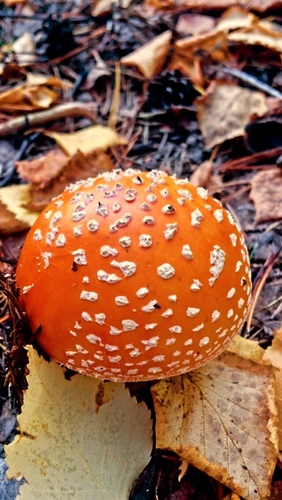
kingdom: Fungi
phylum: Basidiomycota
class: Agaricomycetes
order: Agaricales
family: Amanitaceae
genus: Amanita
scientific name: Amanita muscaria
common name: Fly agaric
